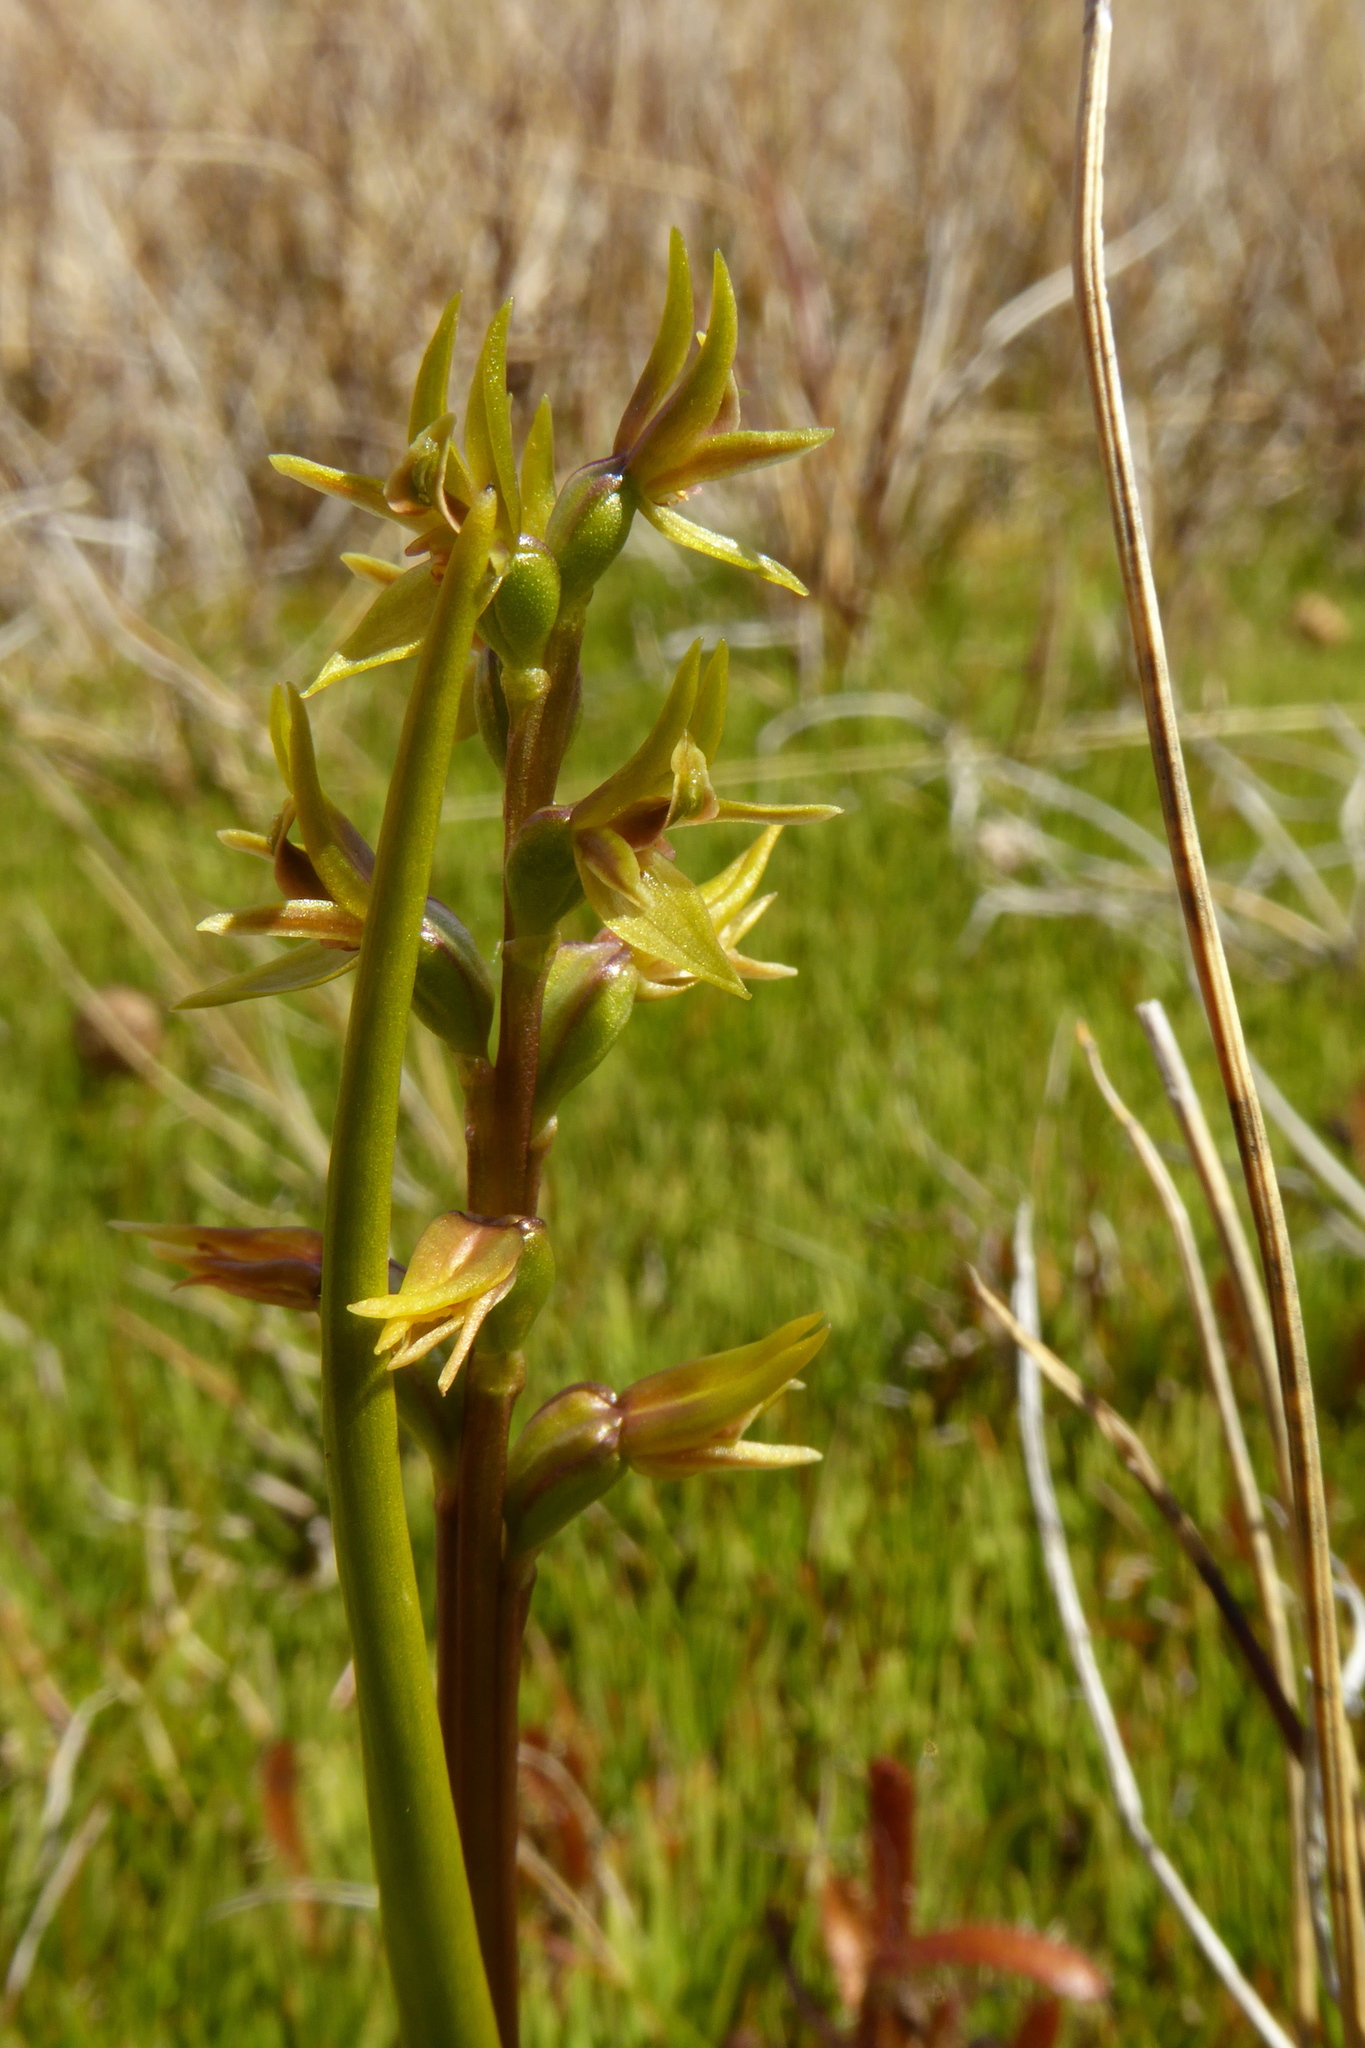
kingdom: Plantae
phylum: Tracheophyta
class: Liliopsida
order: Asparagales
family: Orchidaceae
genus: Prasophyllum
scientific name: Prasophyllum colensoi
